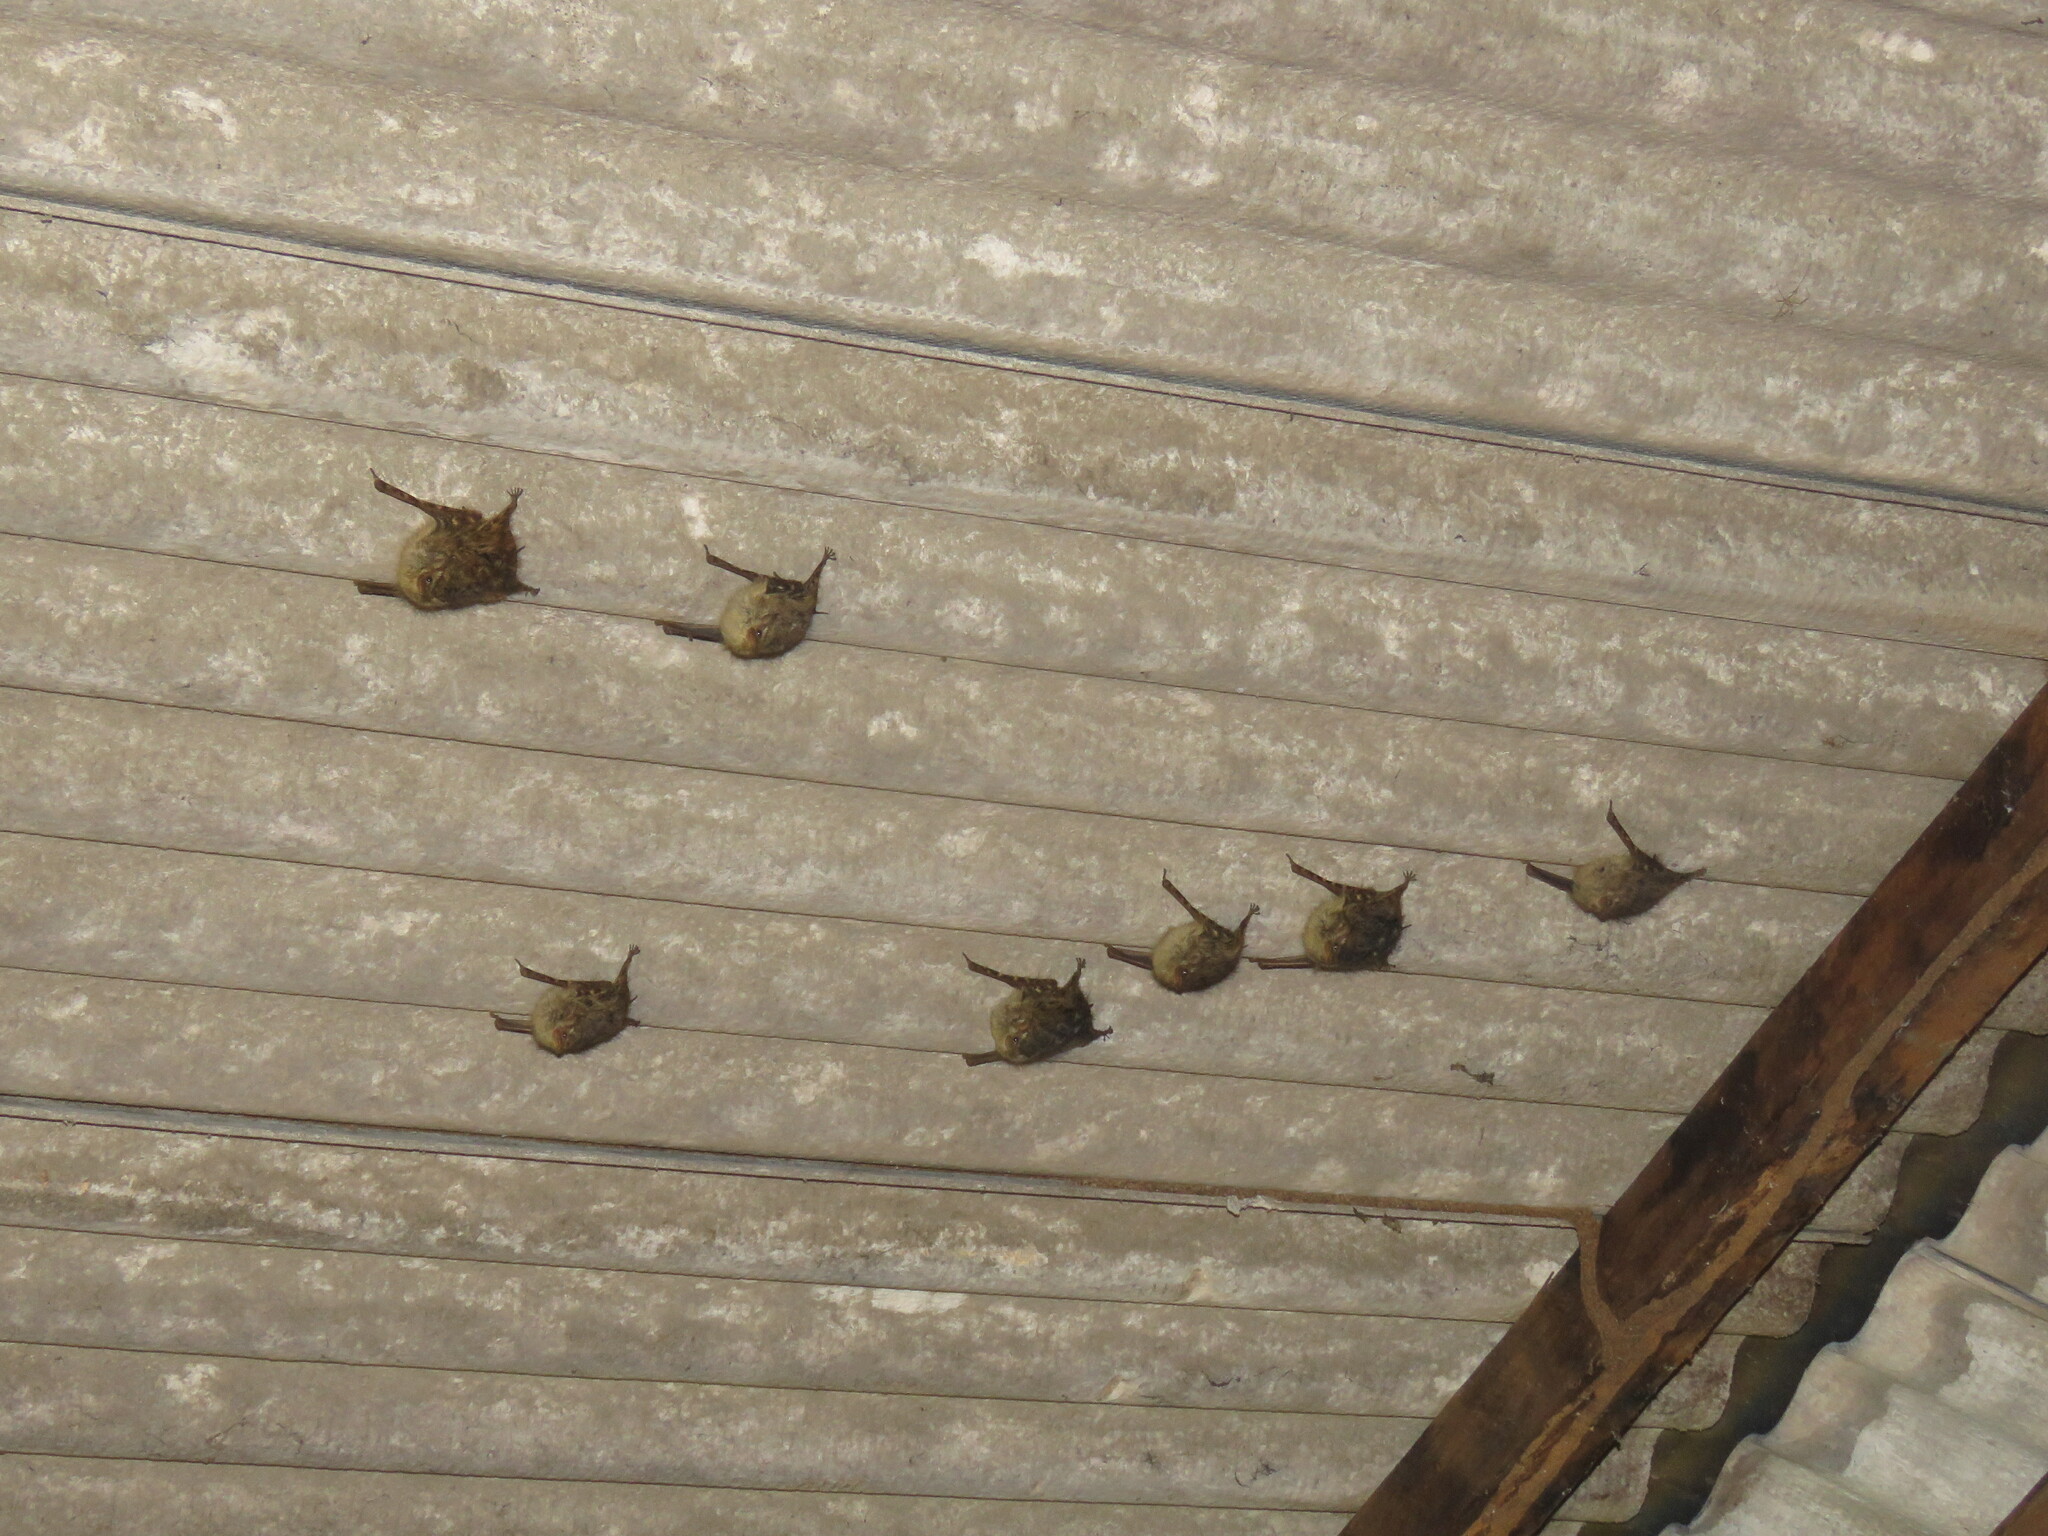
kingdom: Animalia
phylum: Chordata
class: Mammalia
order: Chiroptera
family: Emballonuridae
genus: Rhynchonycteris
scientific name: Rhynchonycteris naso
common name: Proboscis bat
